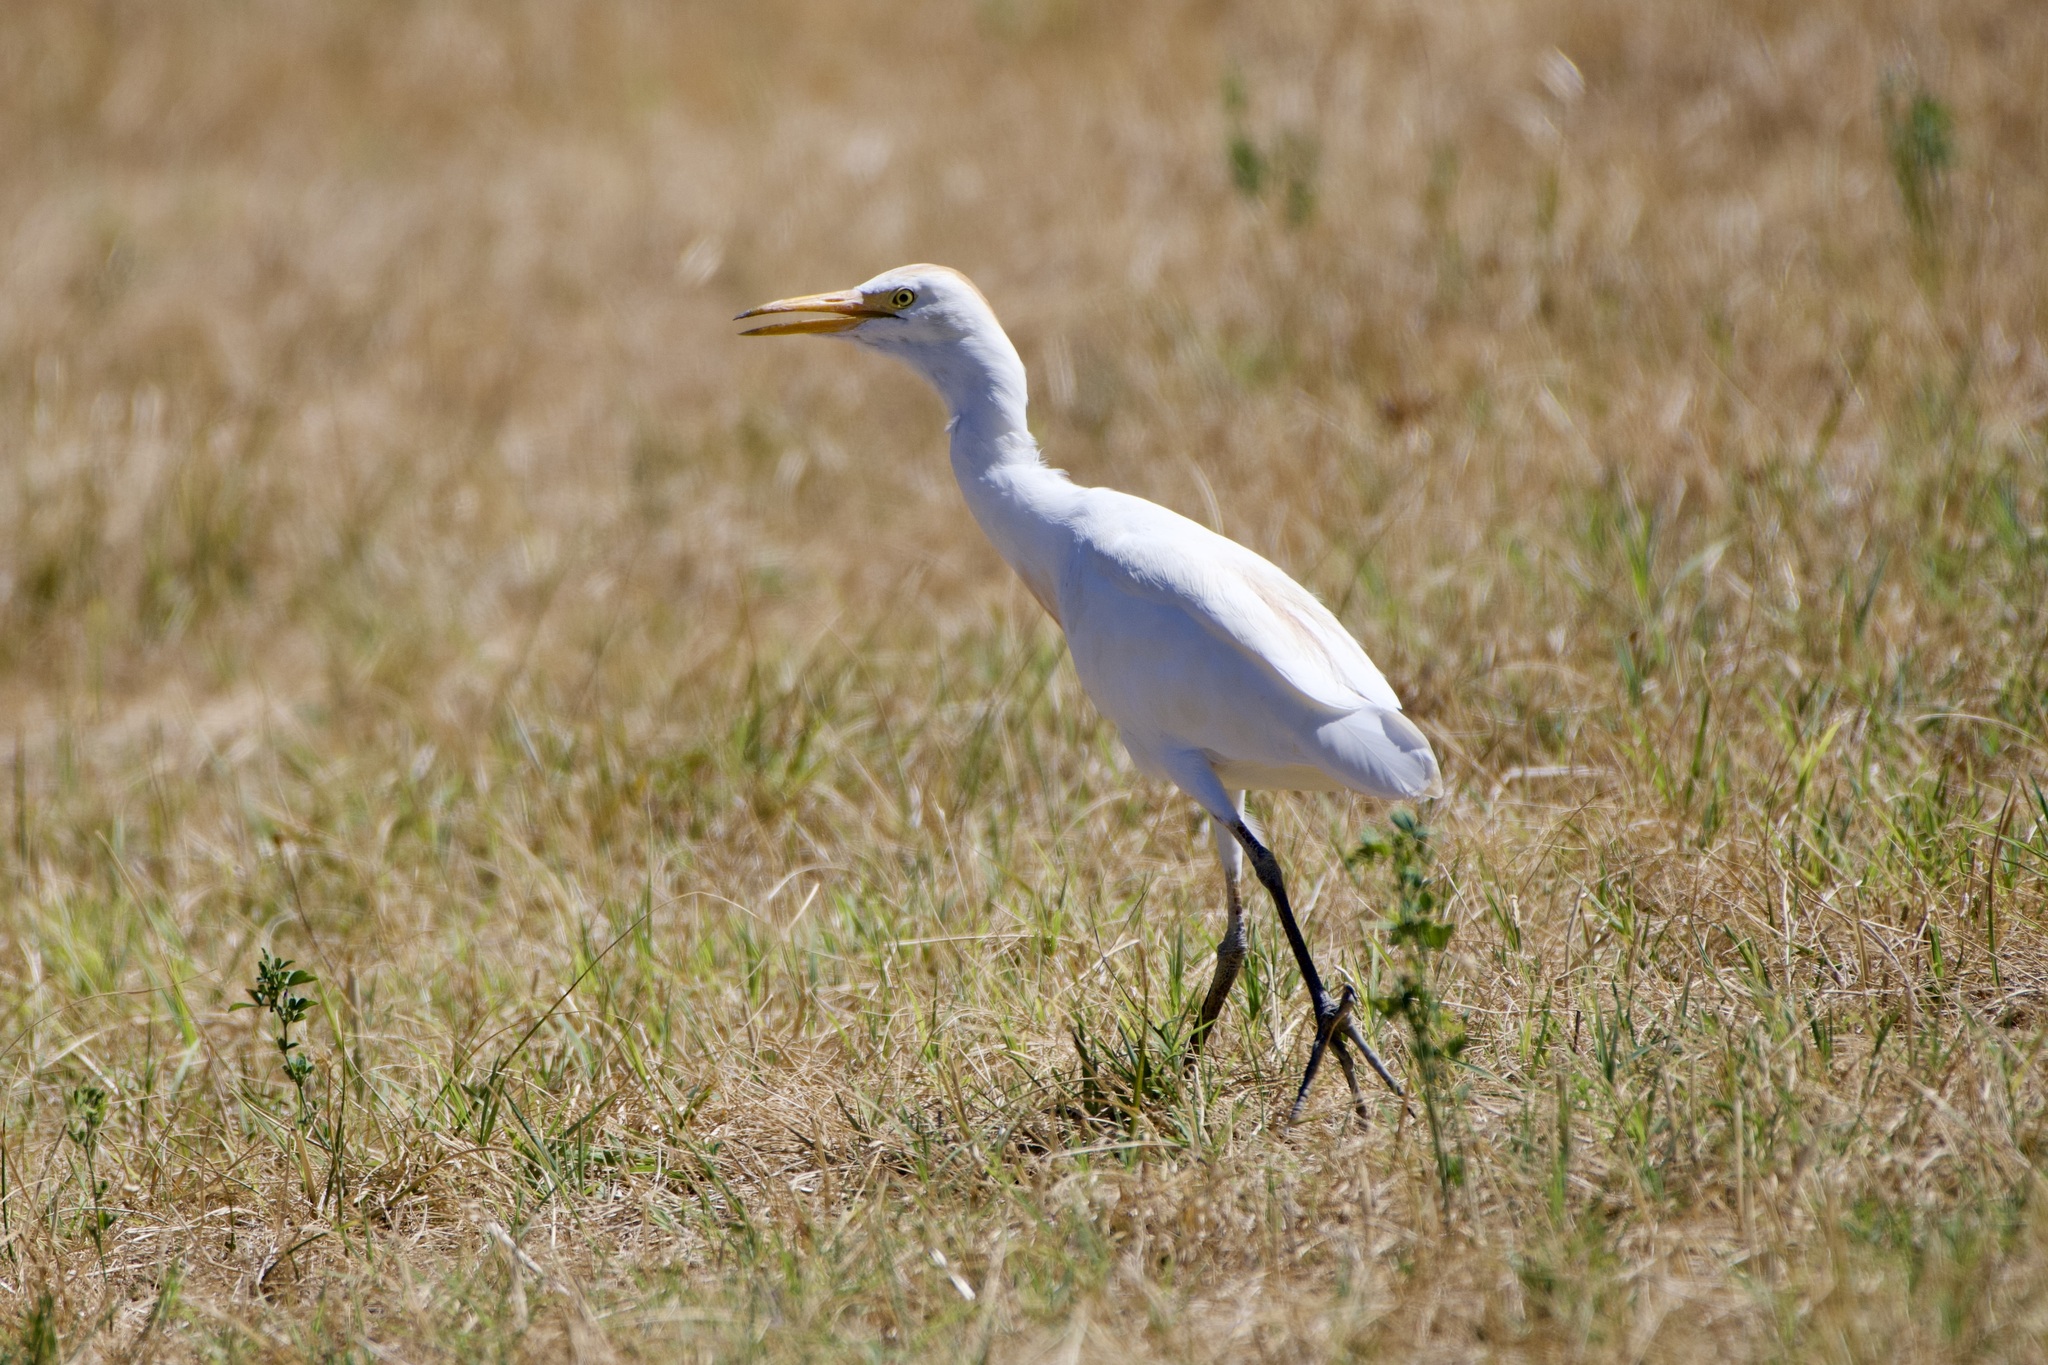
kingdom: Animalia
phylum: Chordata
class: Aves
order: Pelecaniformes
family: Ardeidae
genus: Bubulcus
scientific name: Bubulcus ibis
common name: Cattle egret
